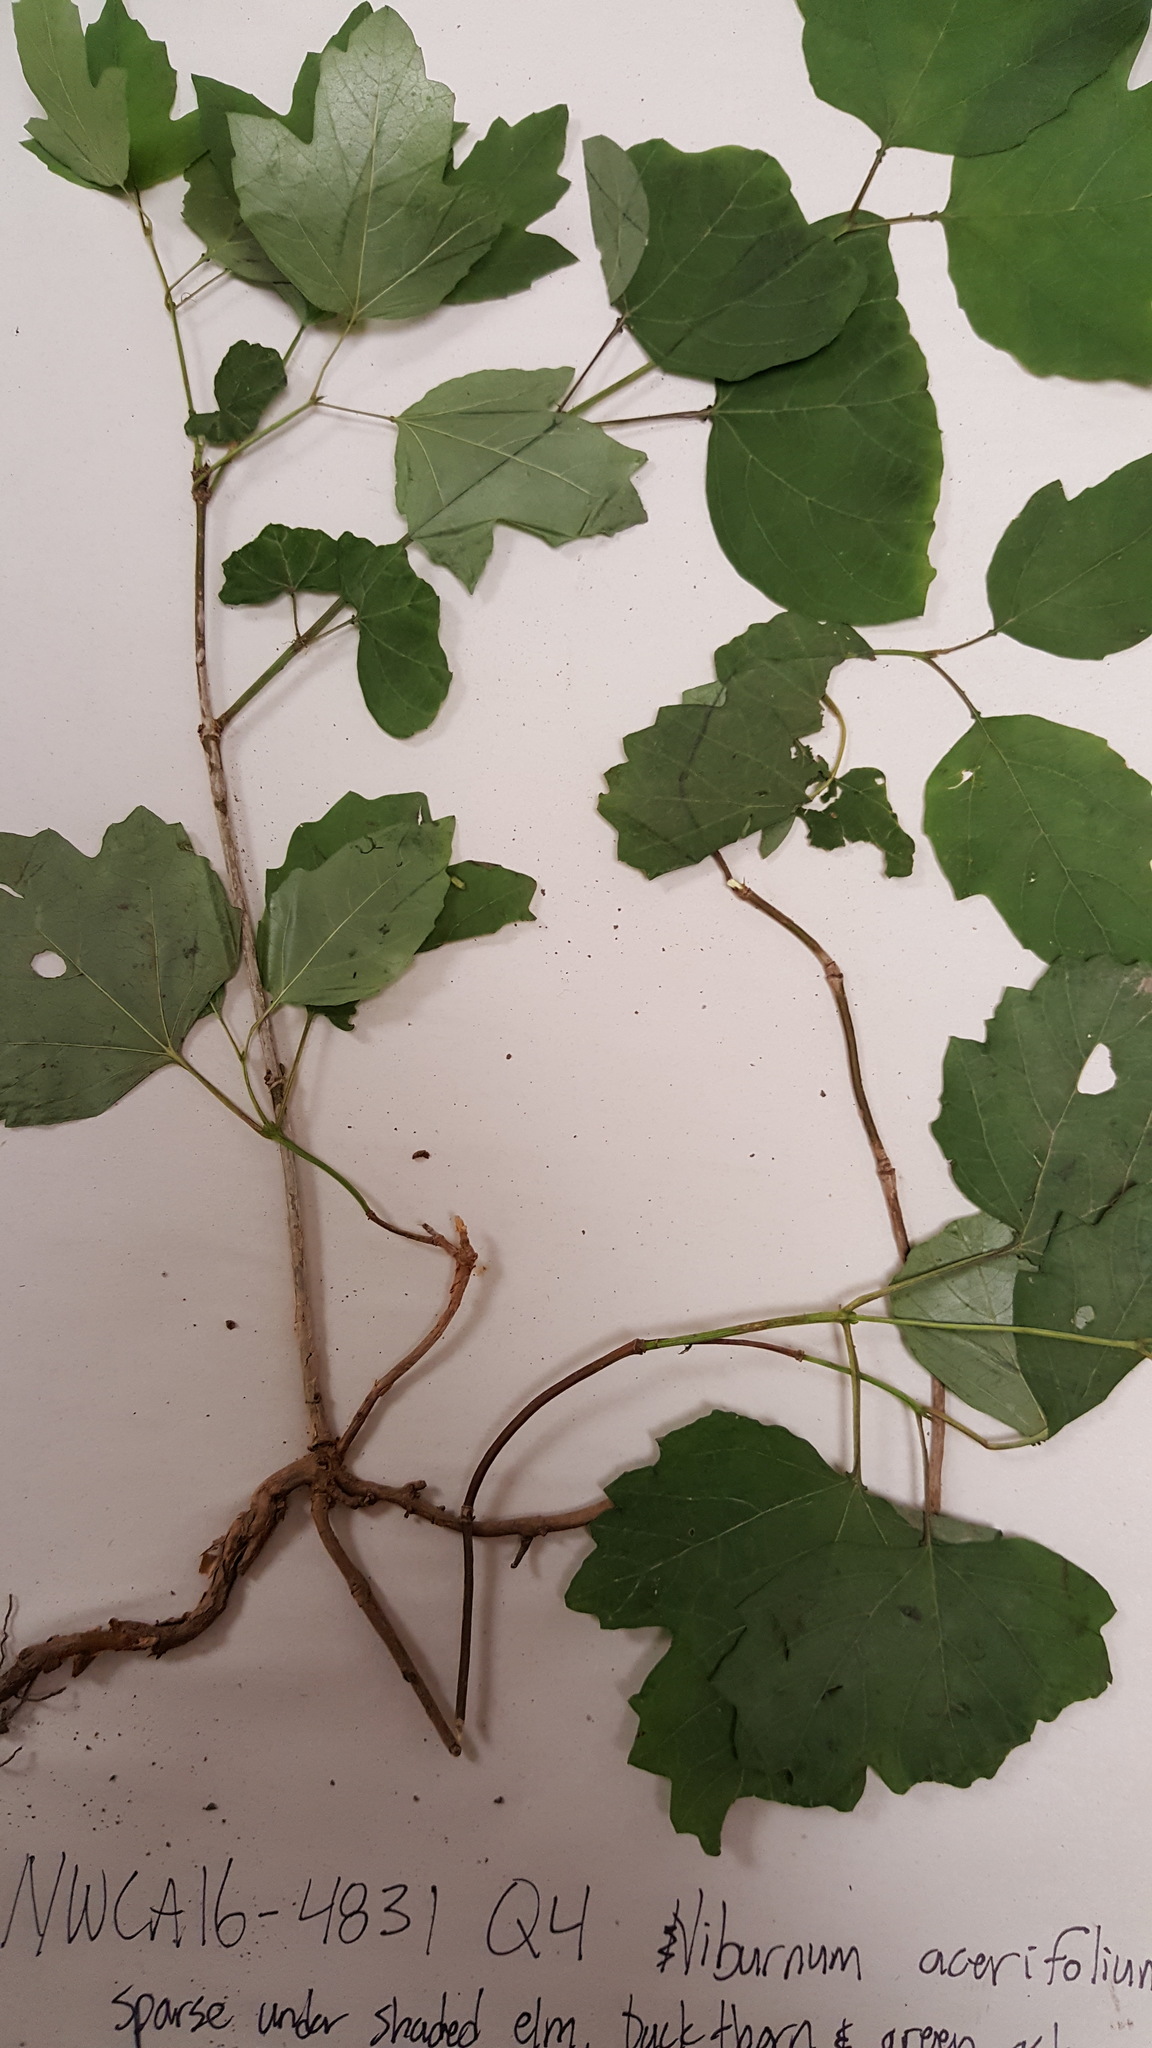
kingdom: Plantae
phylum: Tracheophyta
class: Magnoliopsida
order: Dipsacales
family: Viburnaceae
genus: Viburnum
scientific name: Viburnum opulus
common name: Guelder-rose
